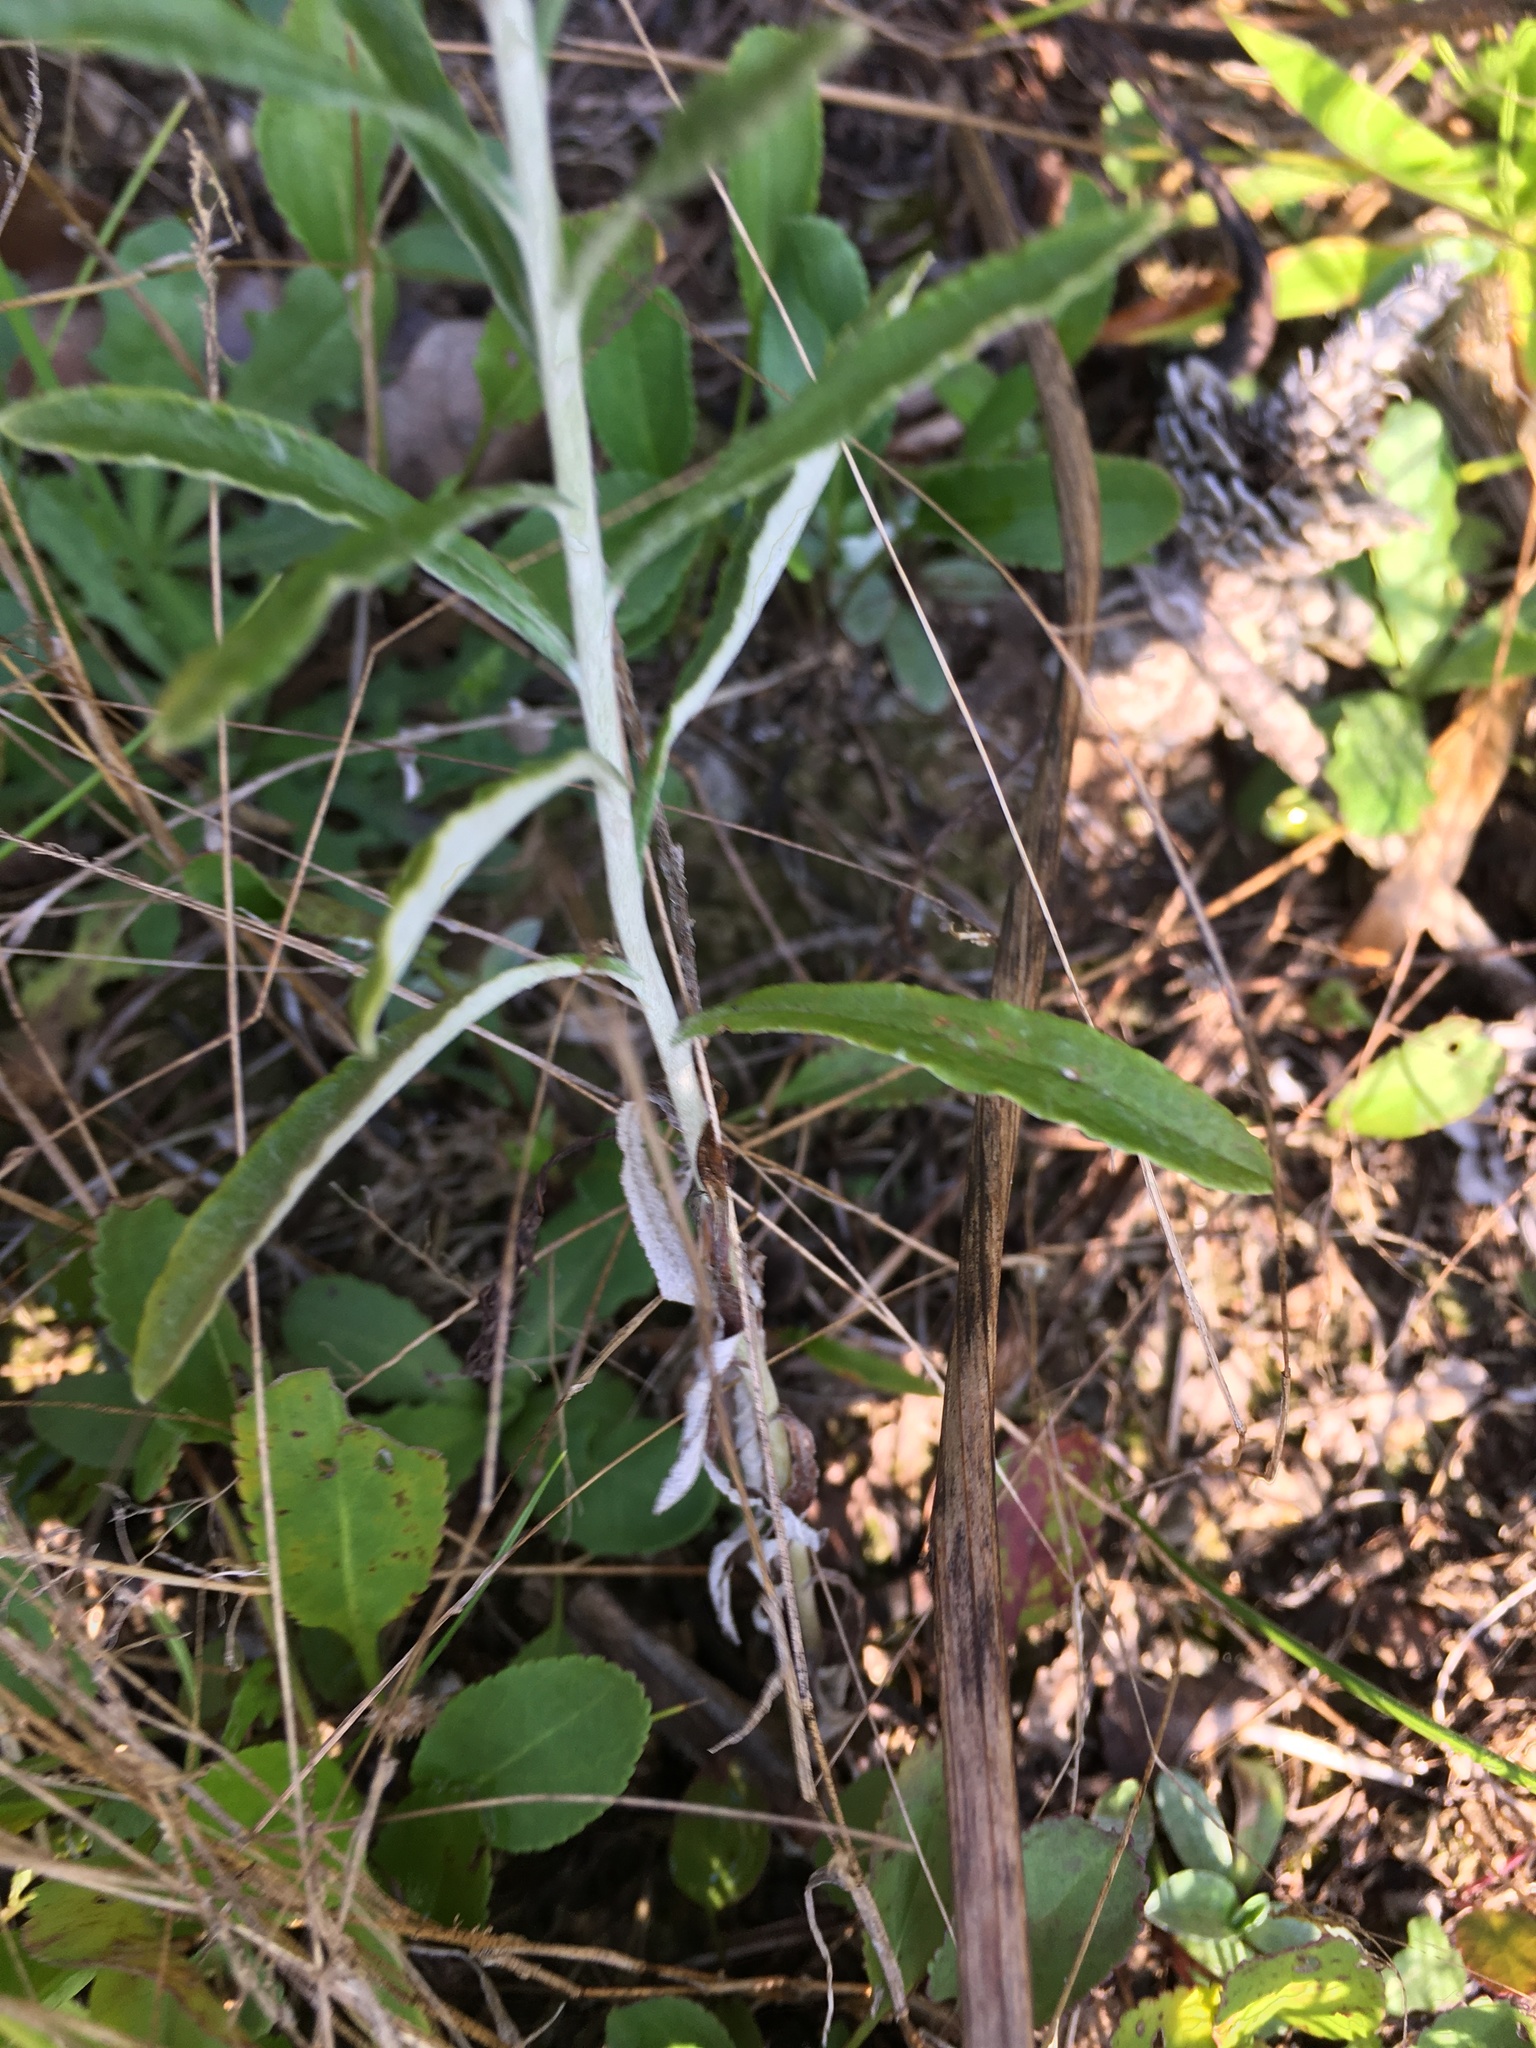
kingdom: Plantae
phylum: Tracheophyta
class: Magnoliopsida
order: Asterales
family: Asteraceae
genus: Pseudognaphalium
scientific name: Pseudognaphalium obtusifolium
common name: Eastern rabbit-tobacco
